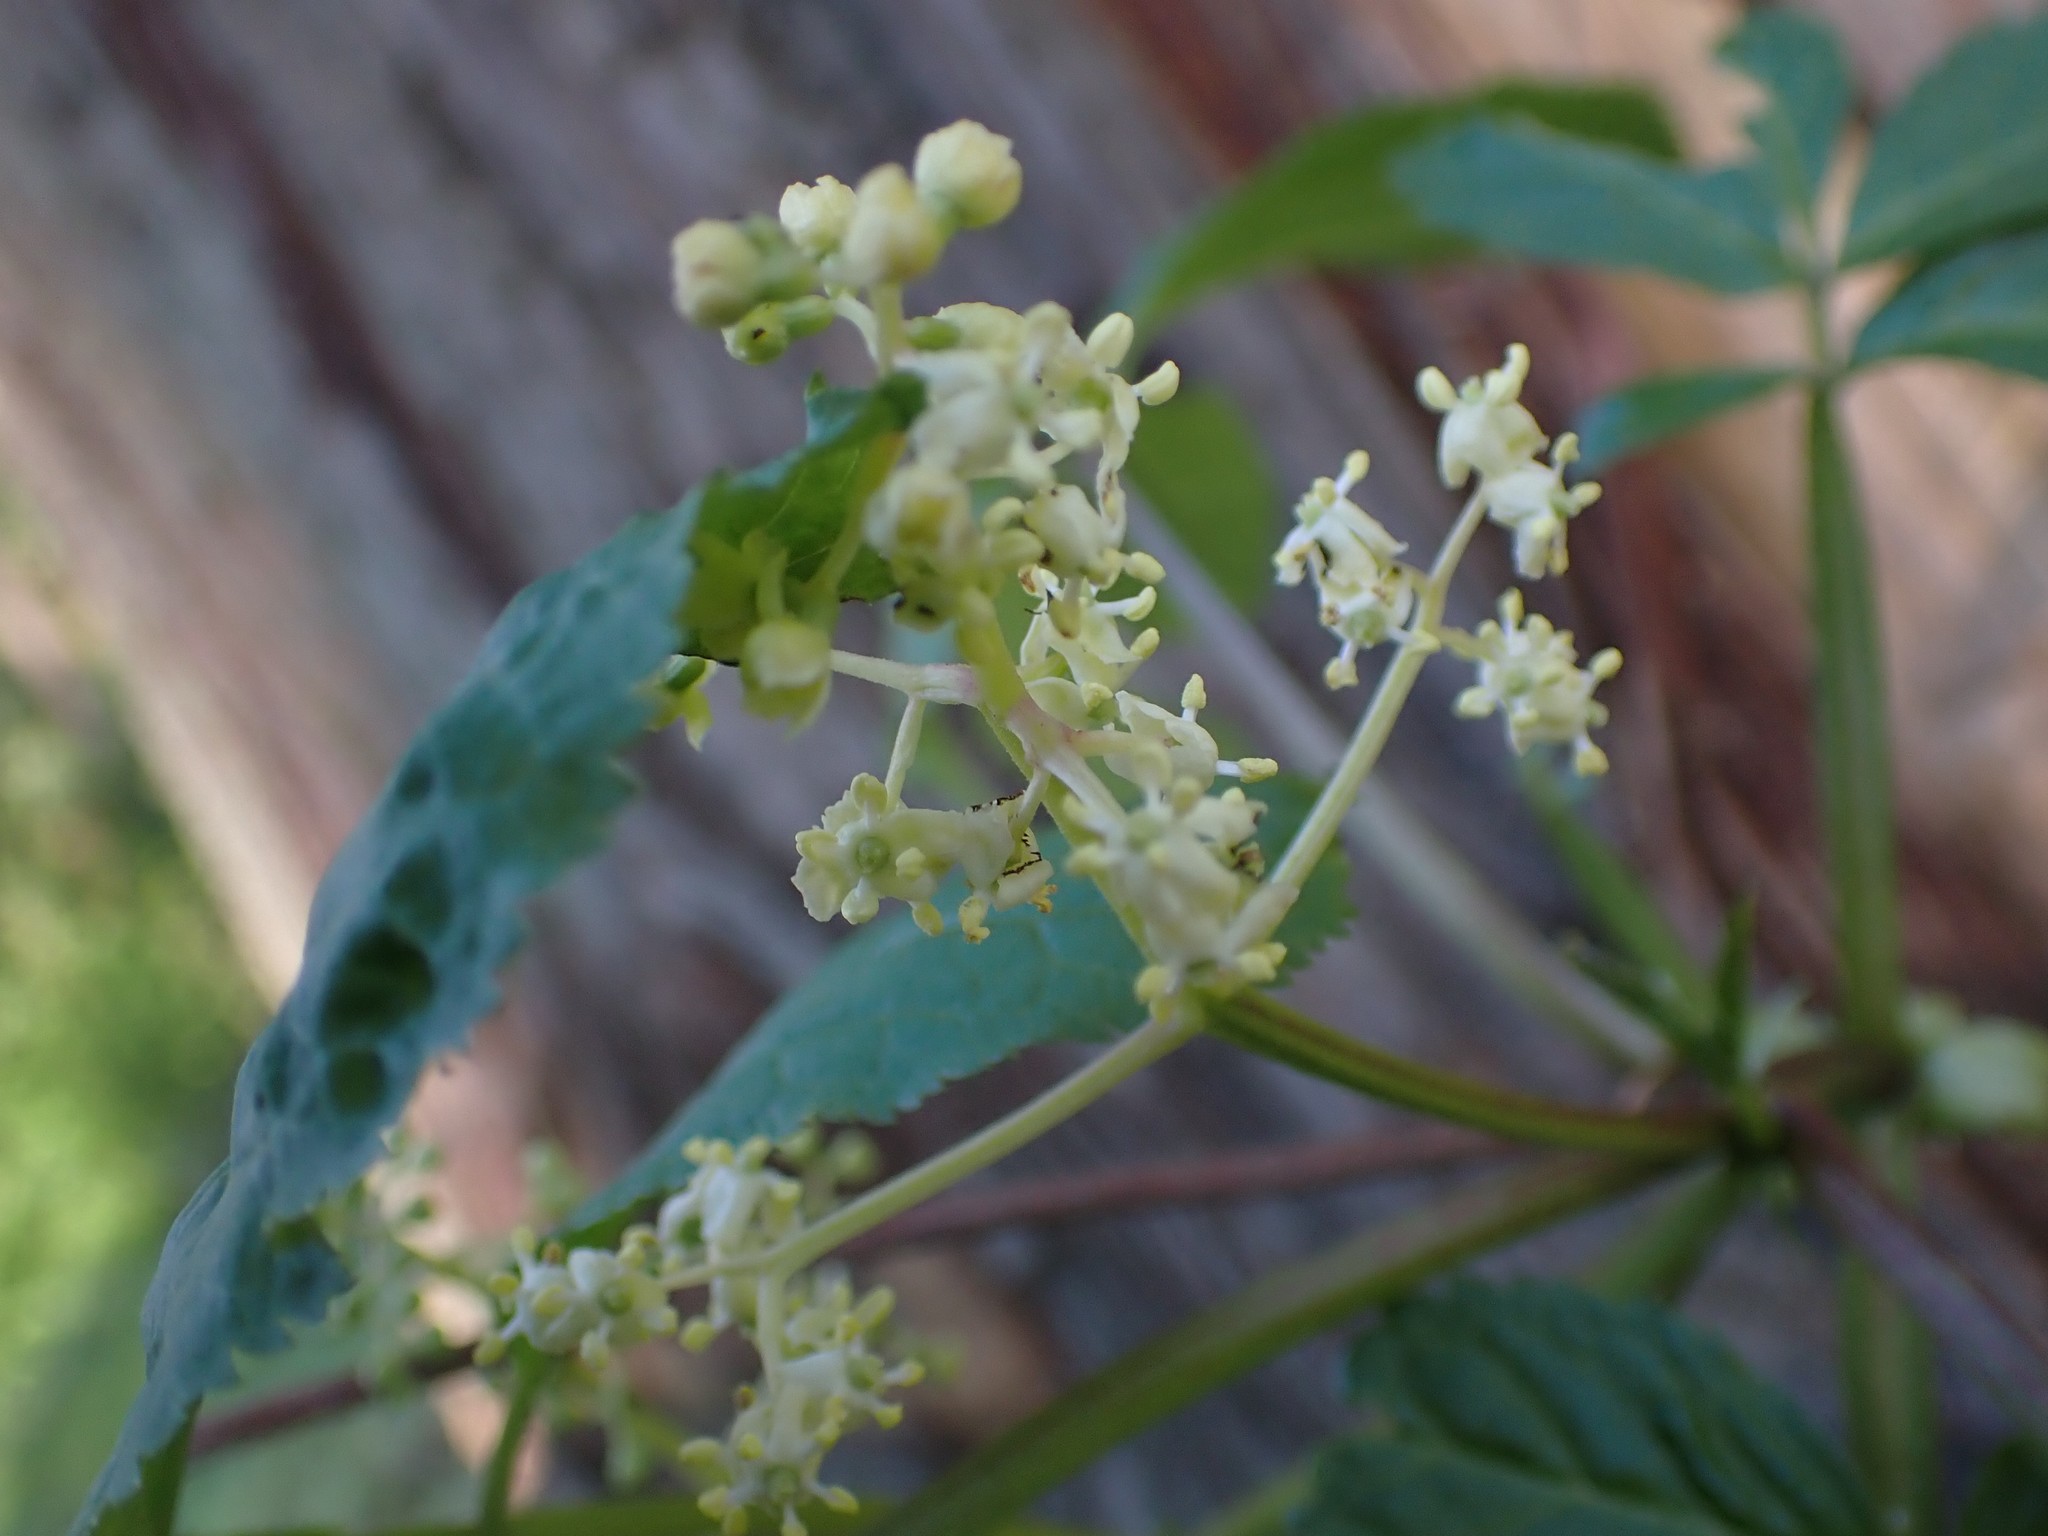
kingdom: Plantae
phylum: Tracheophyta
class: Magnoliopsida
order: Dipsacales
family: Viburnaceae
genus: Sambucus
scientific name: Sambucus racemosa
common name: Red-berried elder
